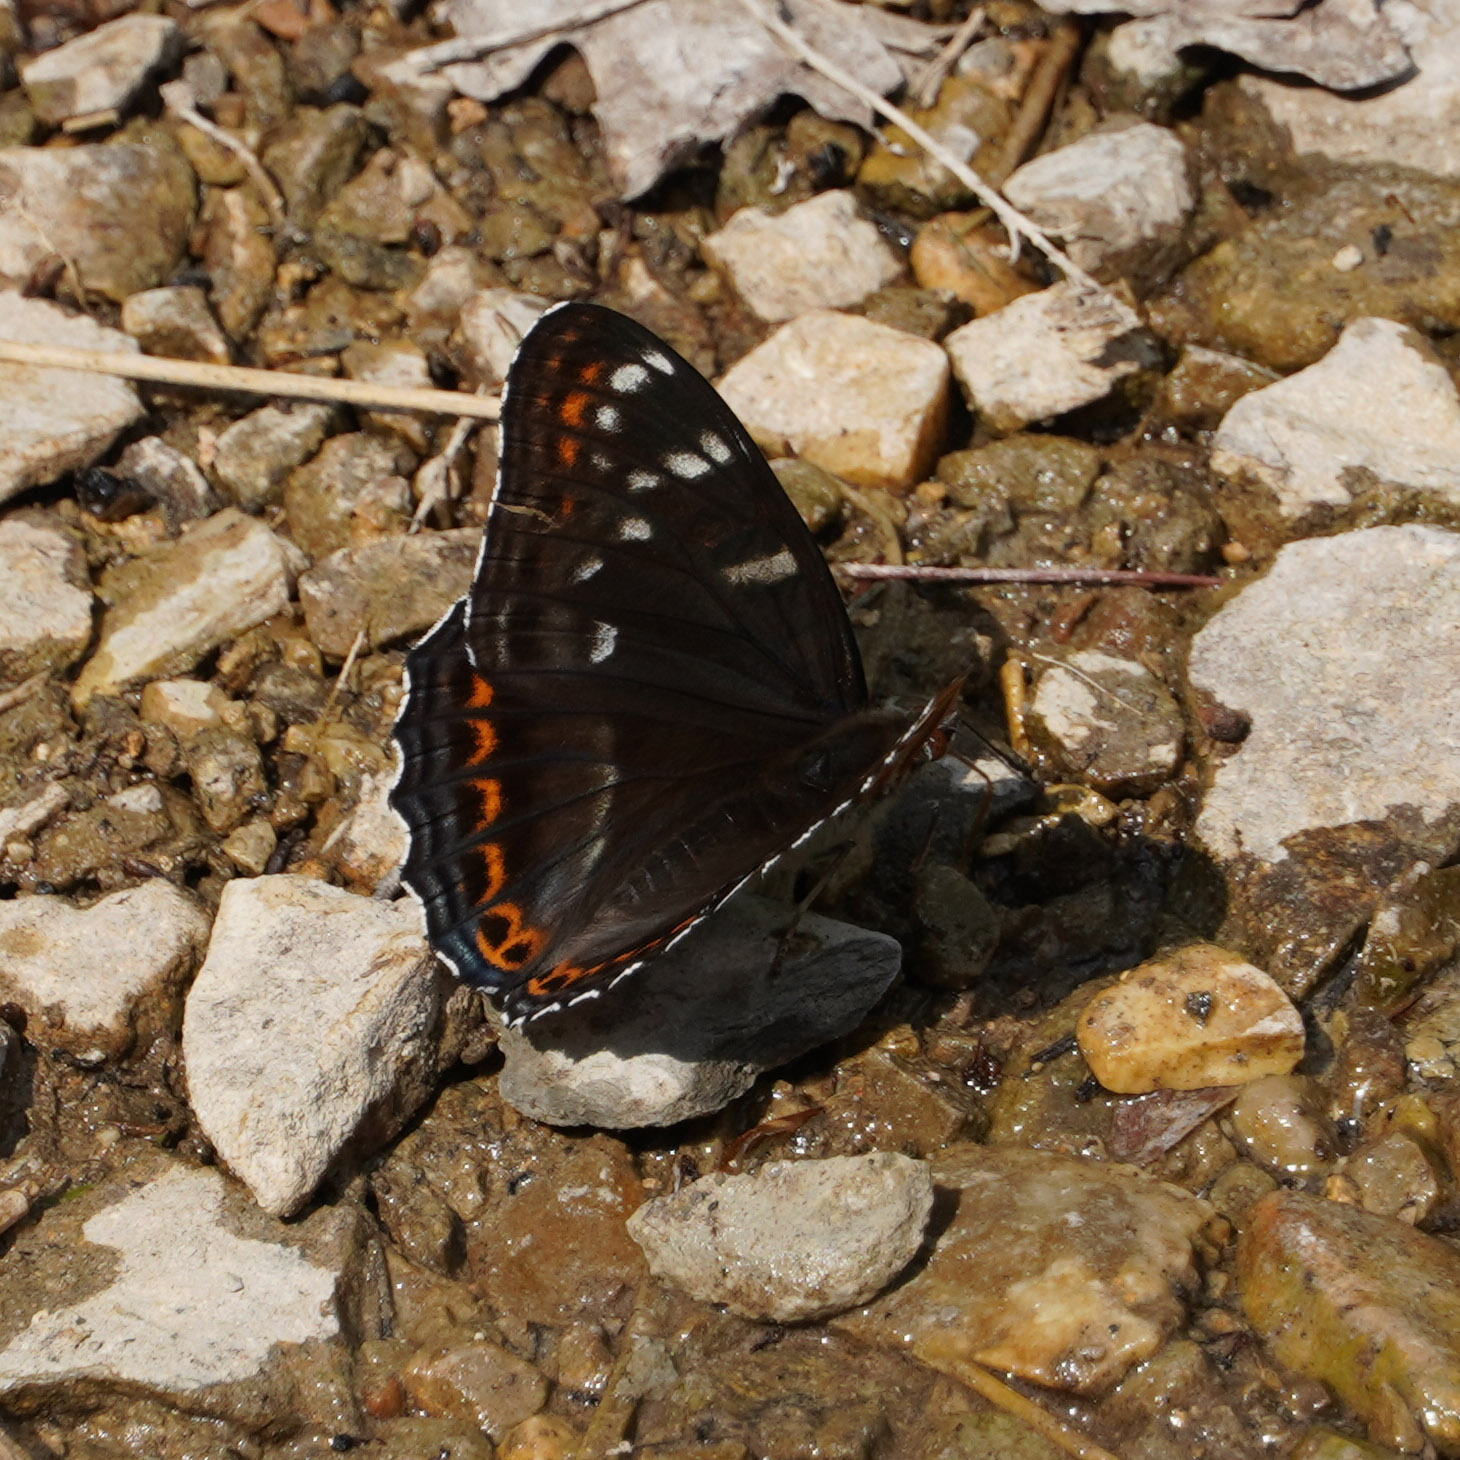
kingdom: Animalia
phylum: Arthropoda
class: Insecta
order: Lepidoptera
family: Nymphalidae
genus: Limenitis
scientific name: Limenitis populi
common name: Poplar admiral
